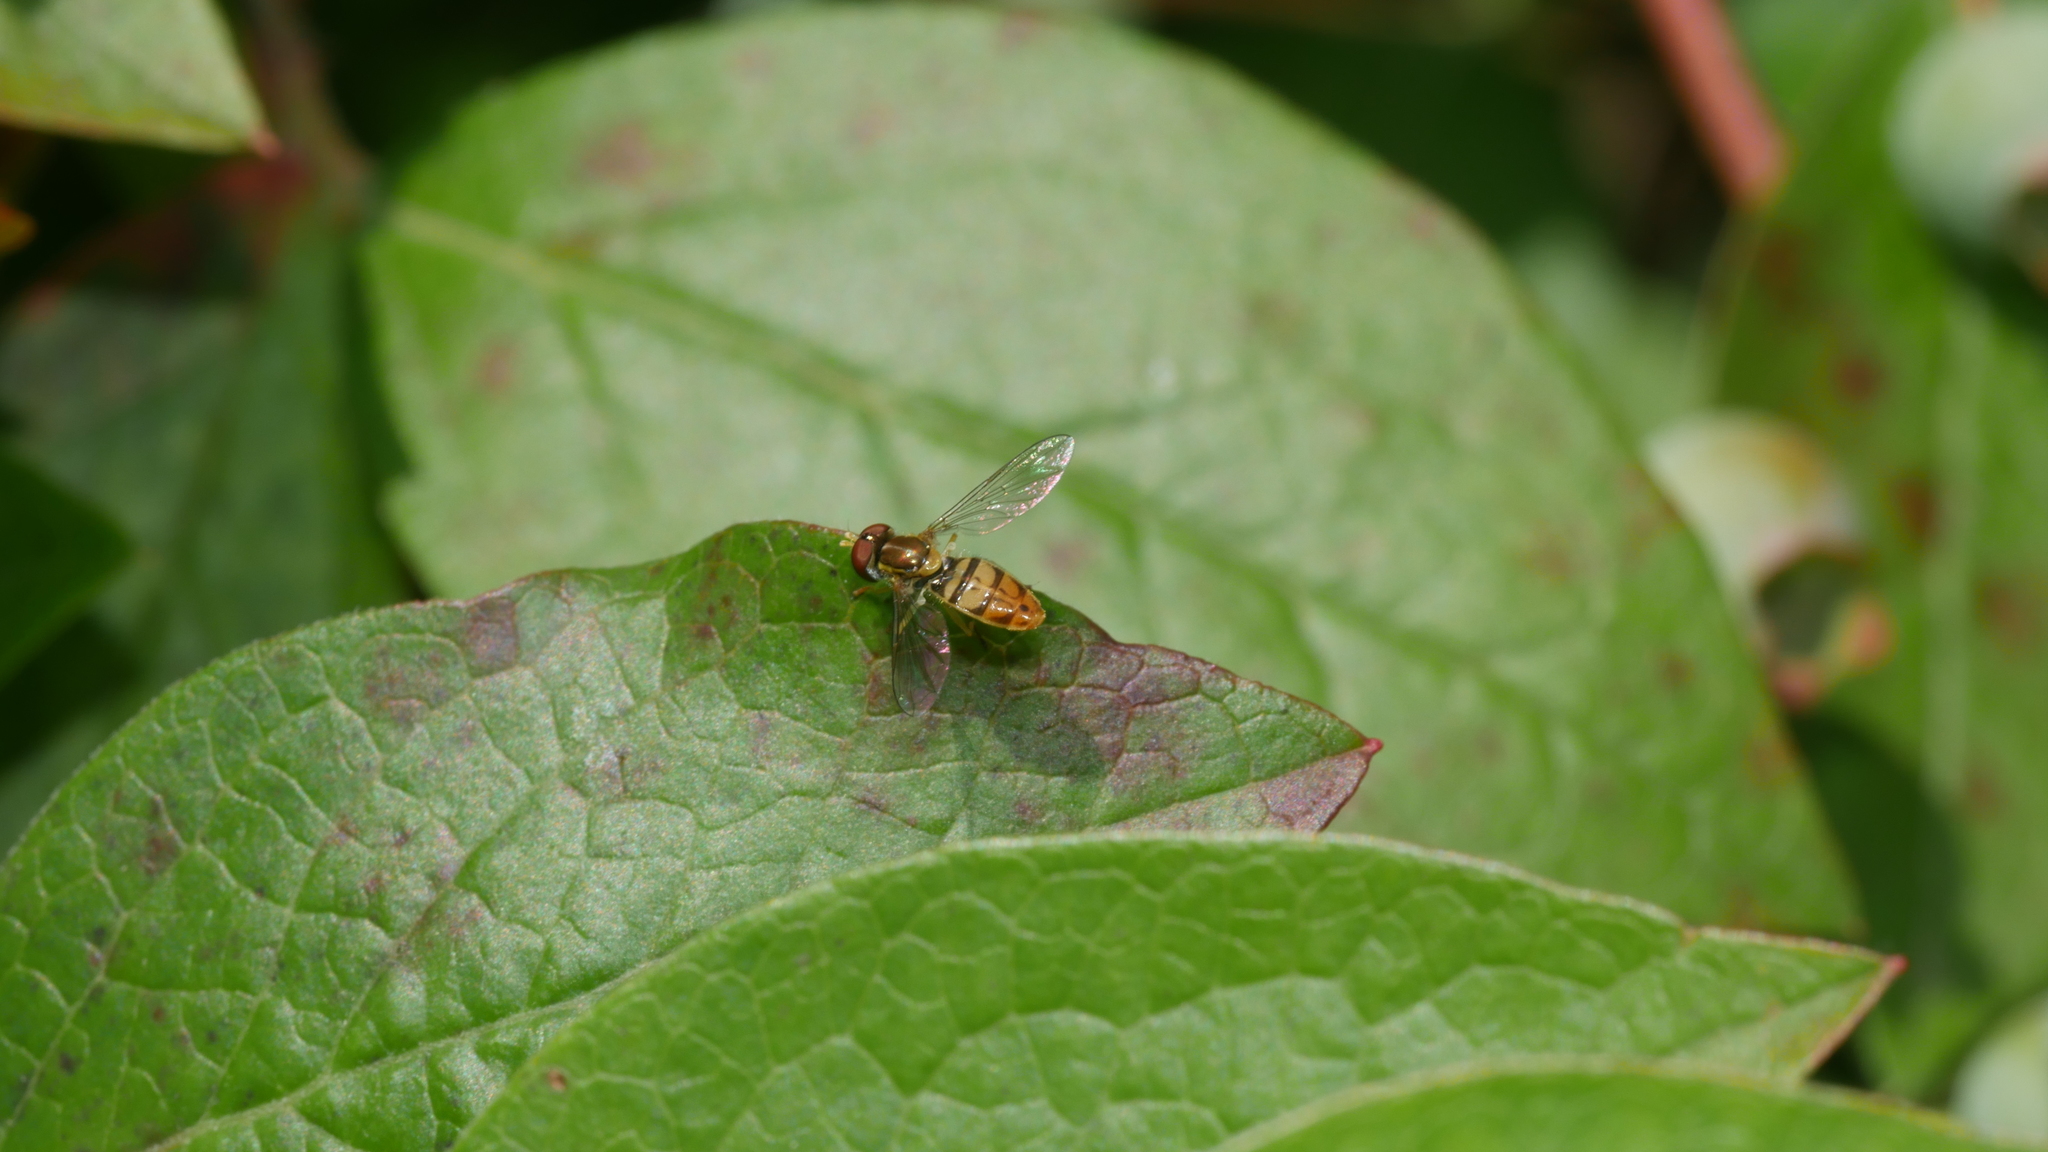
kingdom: Animalia
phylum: Arthropoda
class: Insecta
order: Diptera
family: Syrphidae
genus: Toxomerus
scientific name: Toxomerus marginatus
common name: Syrphid fly
